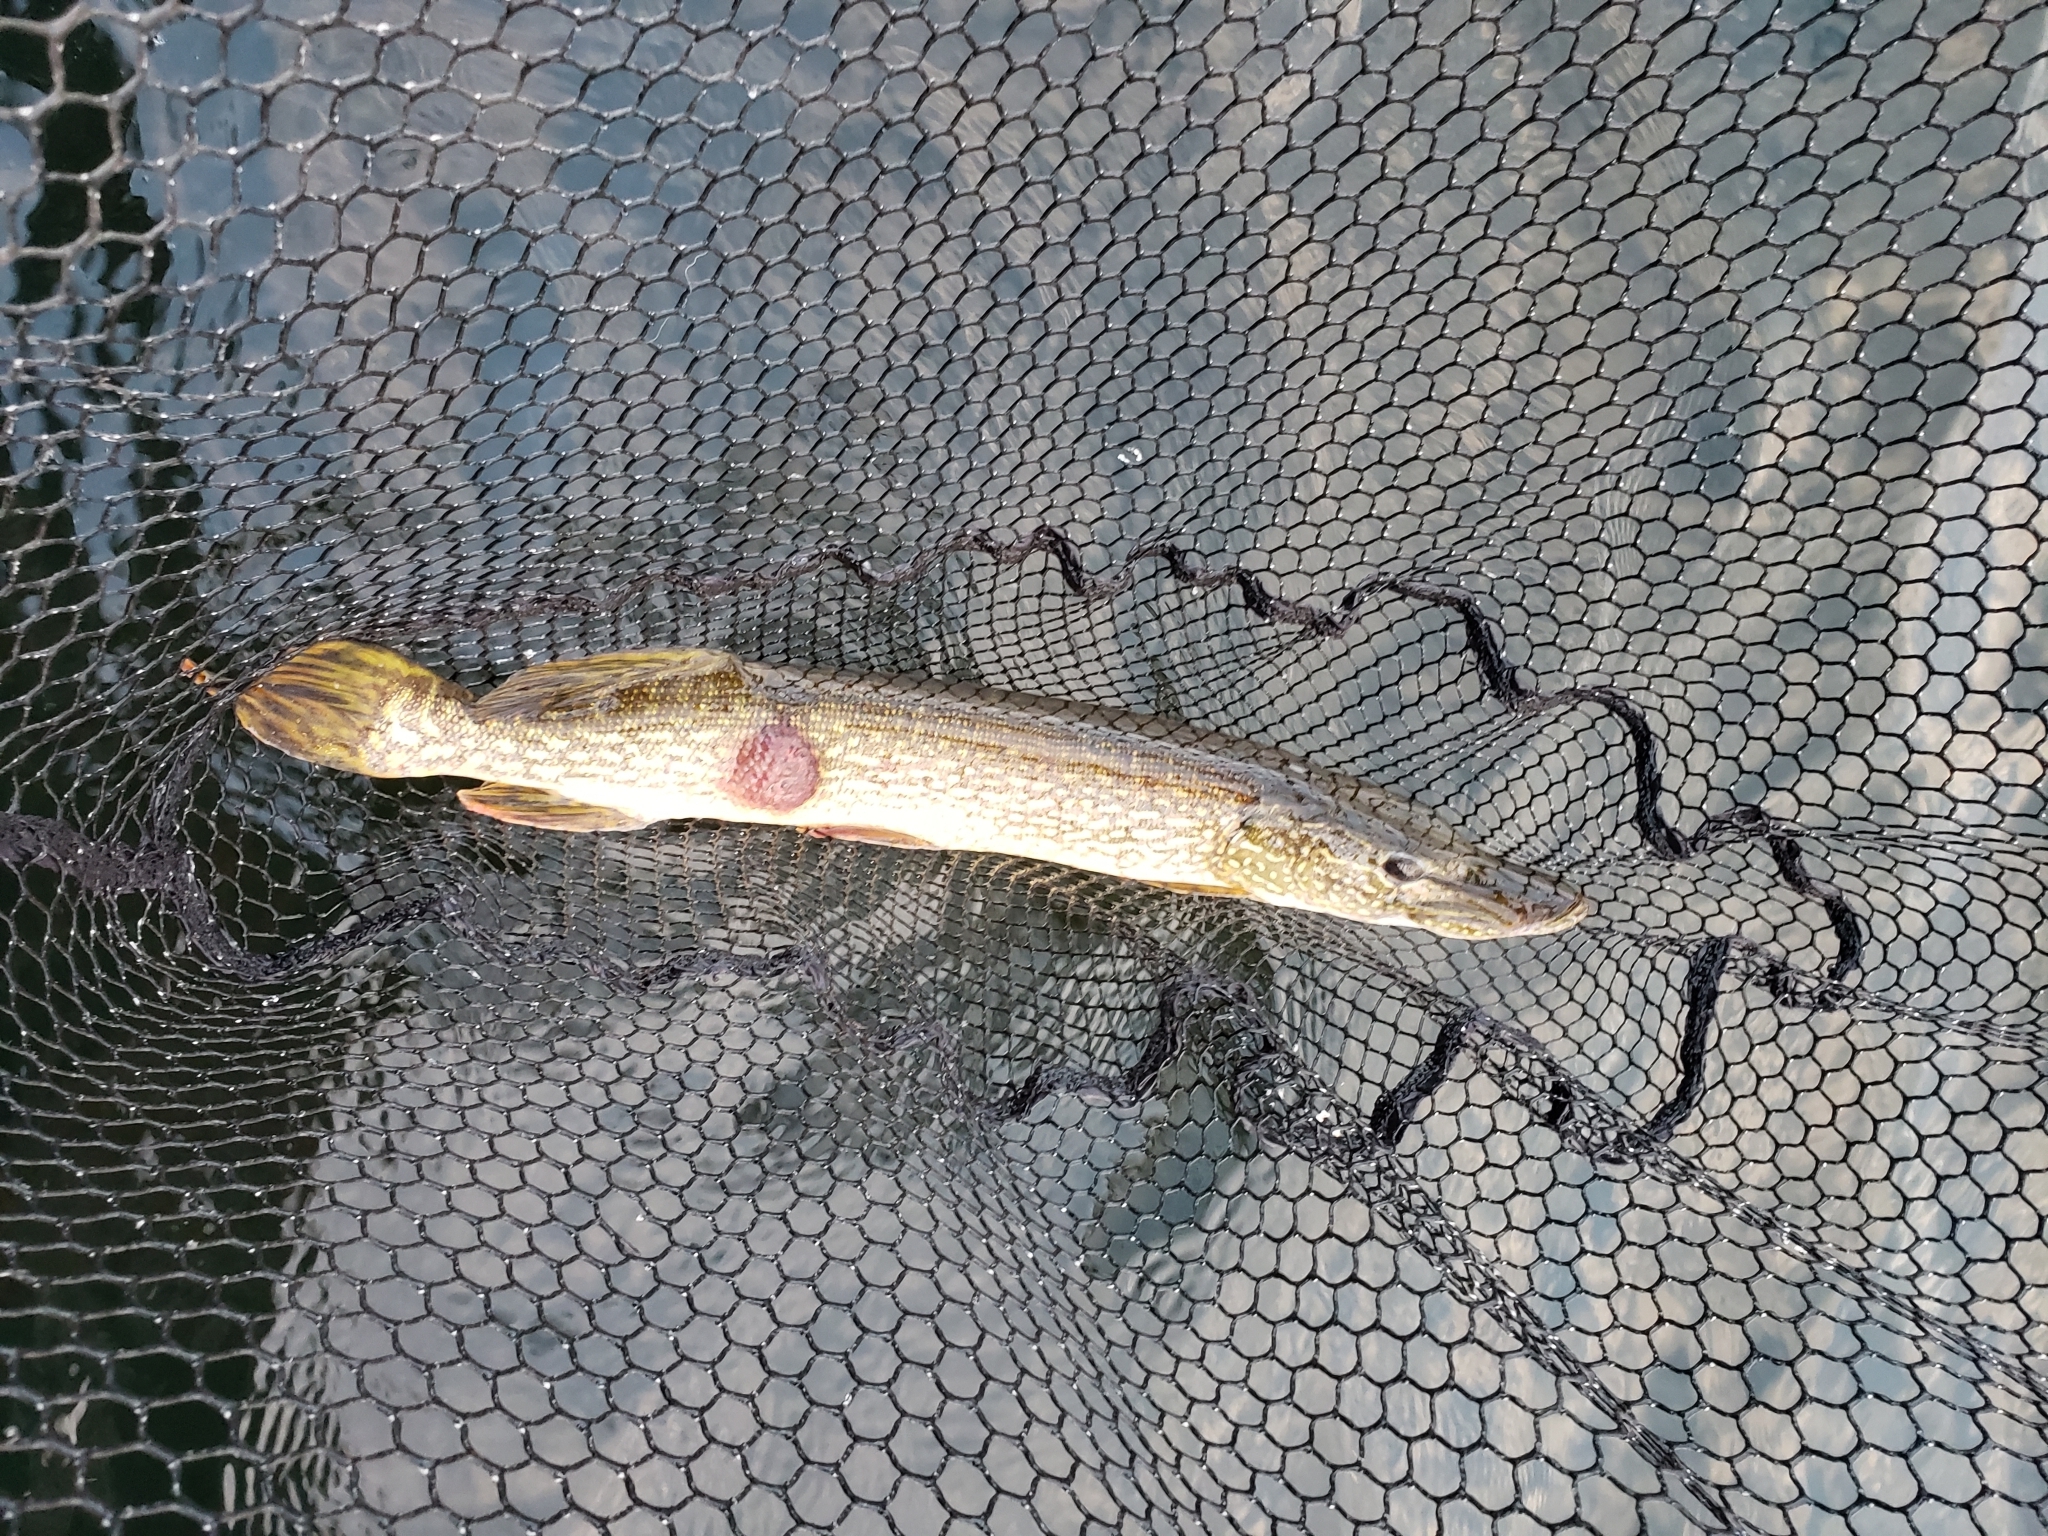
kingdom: Animalia
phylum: Chordata
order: Esociformes
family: Esocidae
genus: Esox
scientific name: Esox lucius
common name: Northern pike
